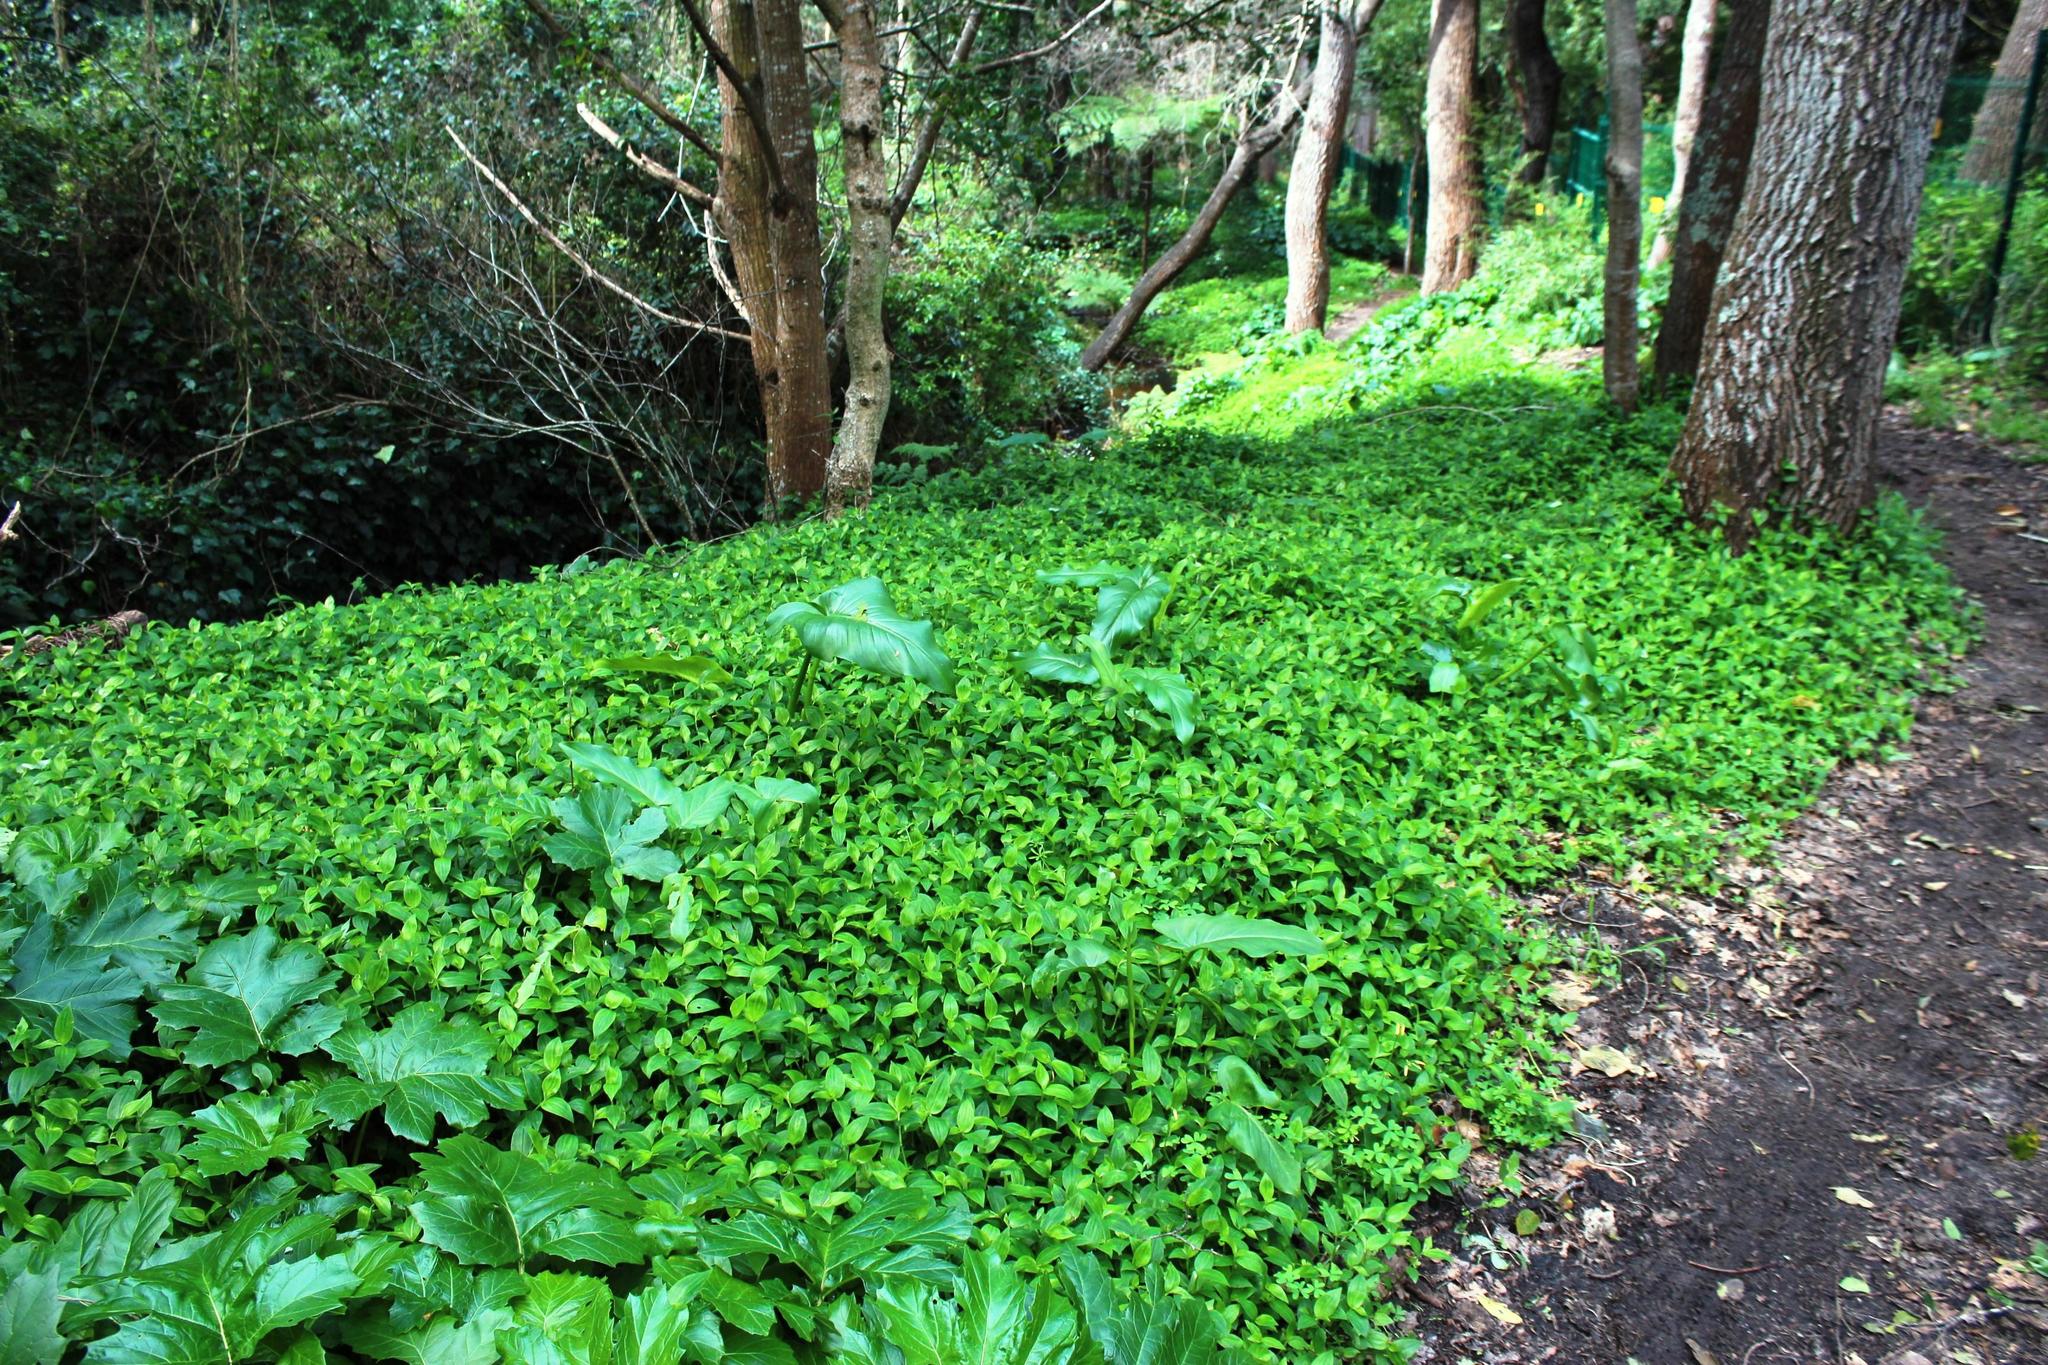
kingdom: Plantae
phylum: Tracheophyta
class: Liliopsida
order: Commelinales
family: Commelinaceae
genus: Tradescantia
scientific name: Tradescantia fluminensis
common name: Wandering-jew
